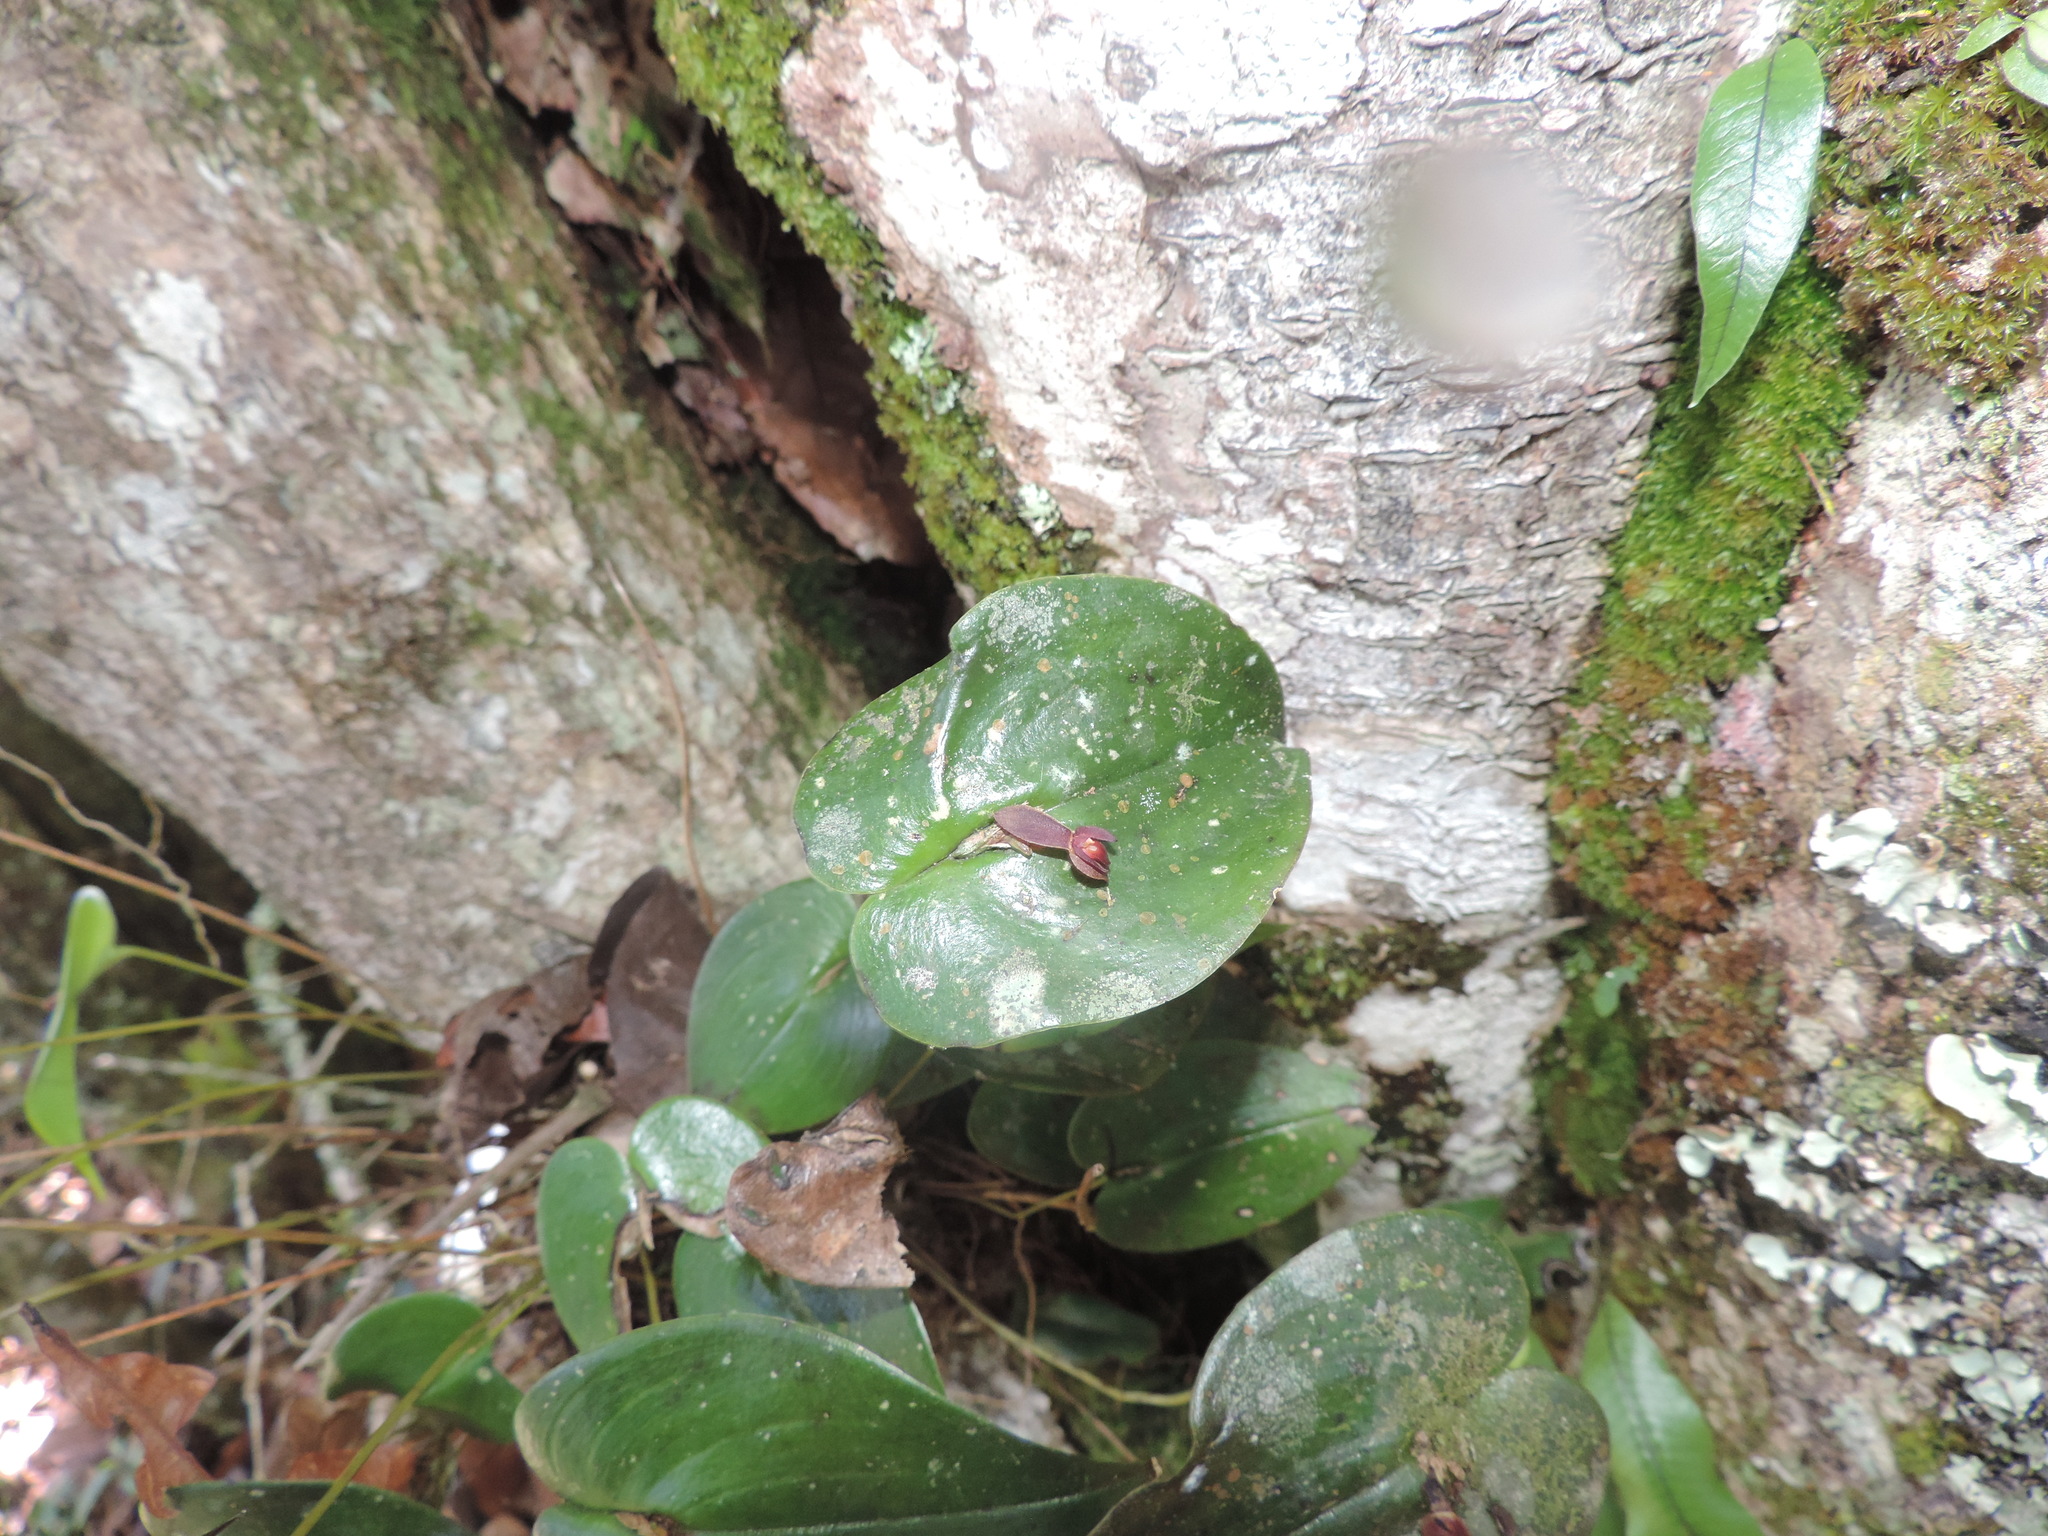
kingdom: Plantae
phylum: Tracheophyta
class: Liliopsida
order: Asparagales
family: Orchidaceae
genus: Pleurothallis
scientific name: Pleurothallis cordata
